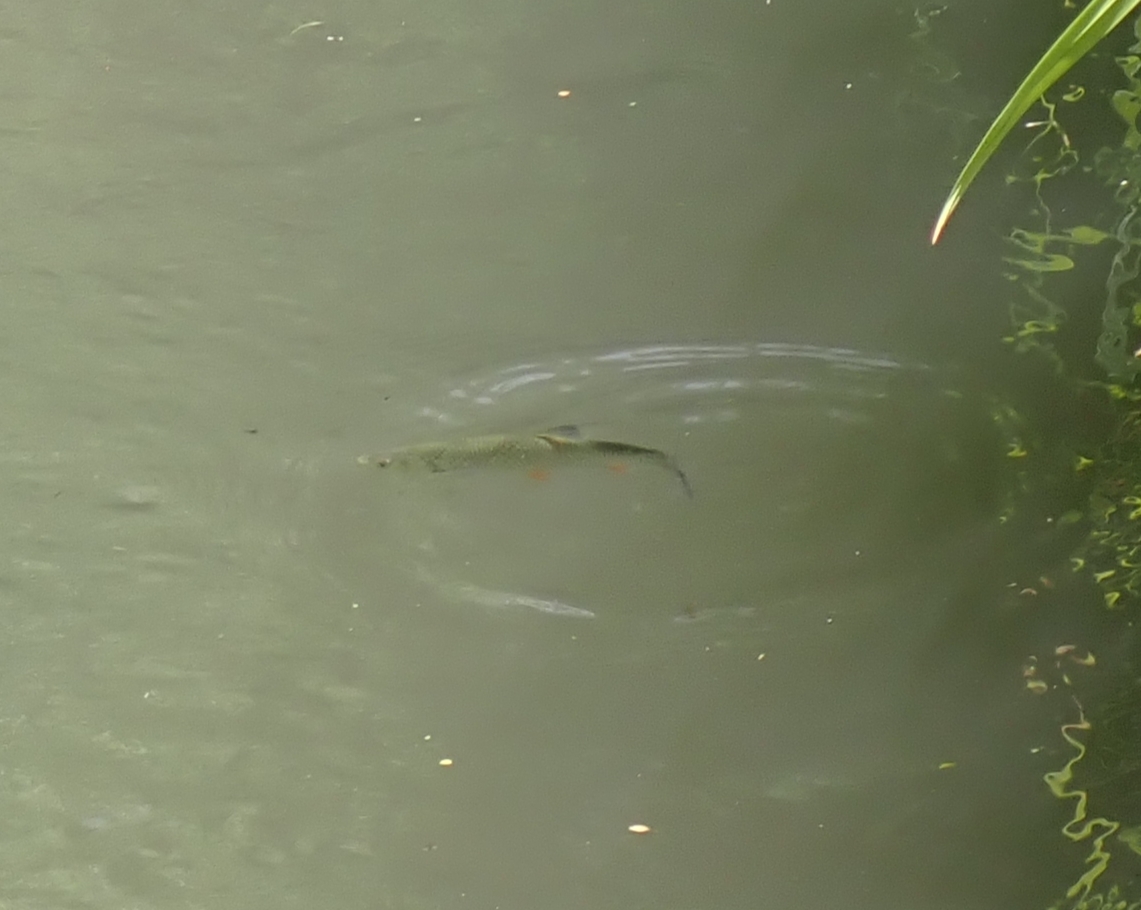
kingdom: Animalia
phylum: Chordata
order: Cypriniformes
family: Cyprinidae
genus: Squalius
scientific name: Squalius cephalus
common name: Chub
